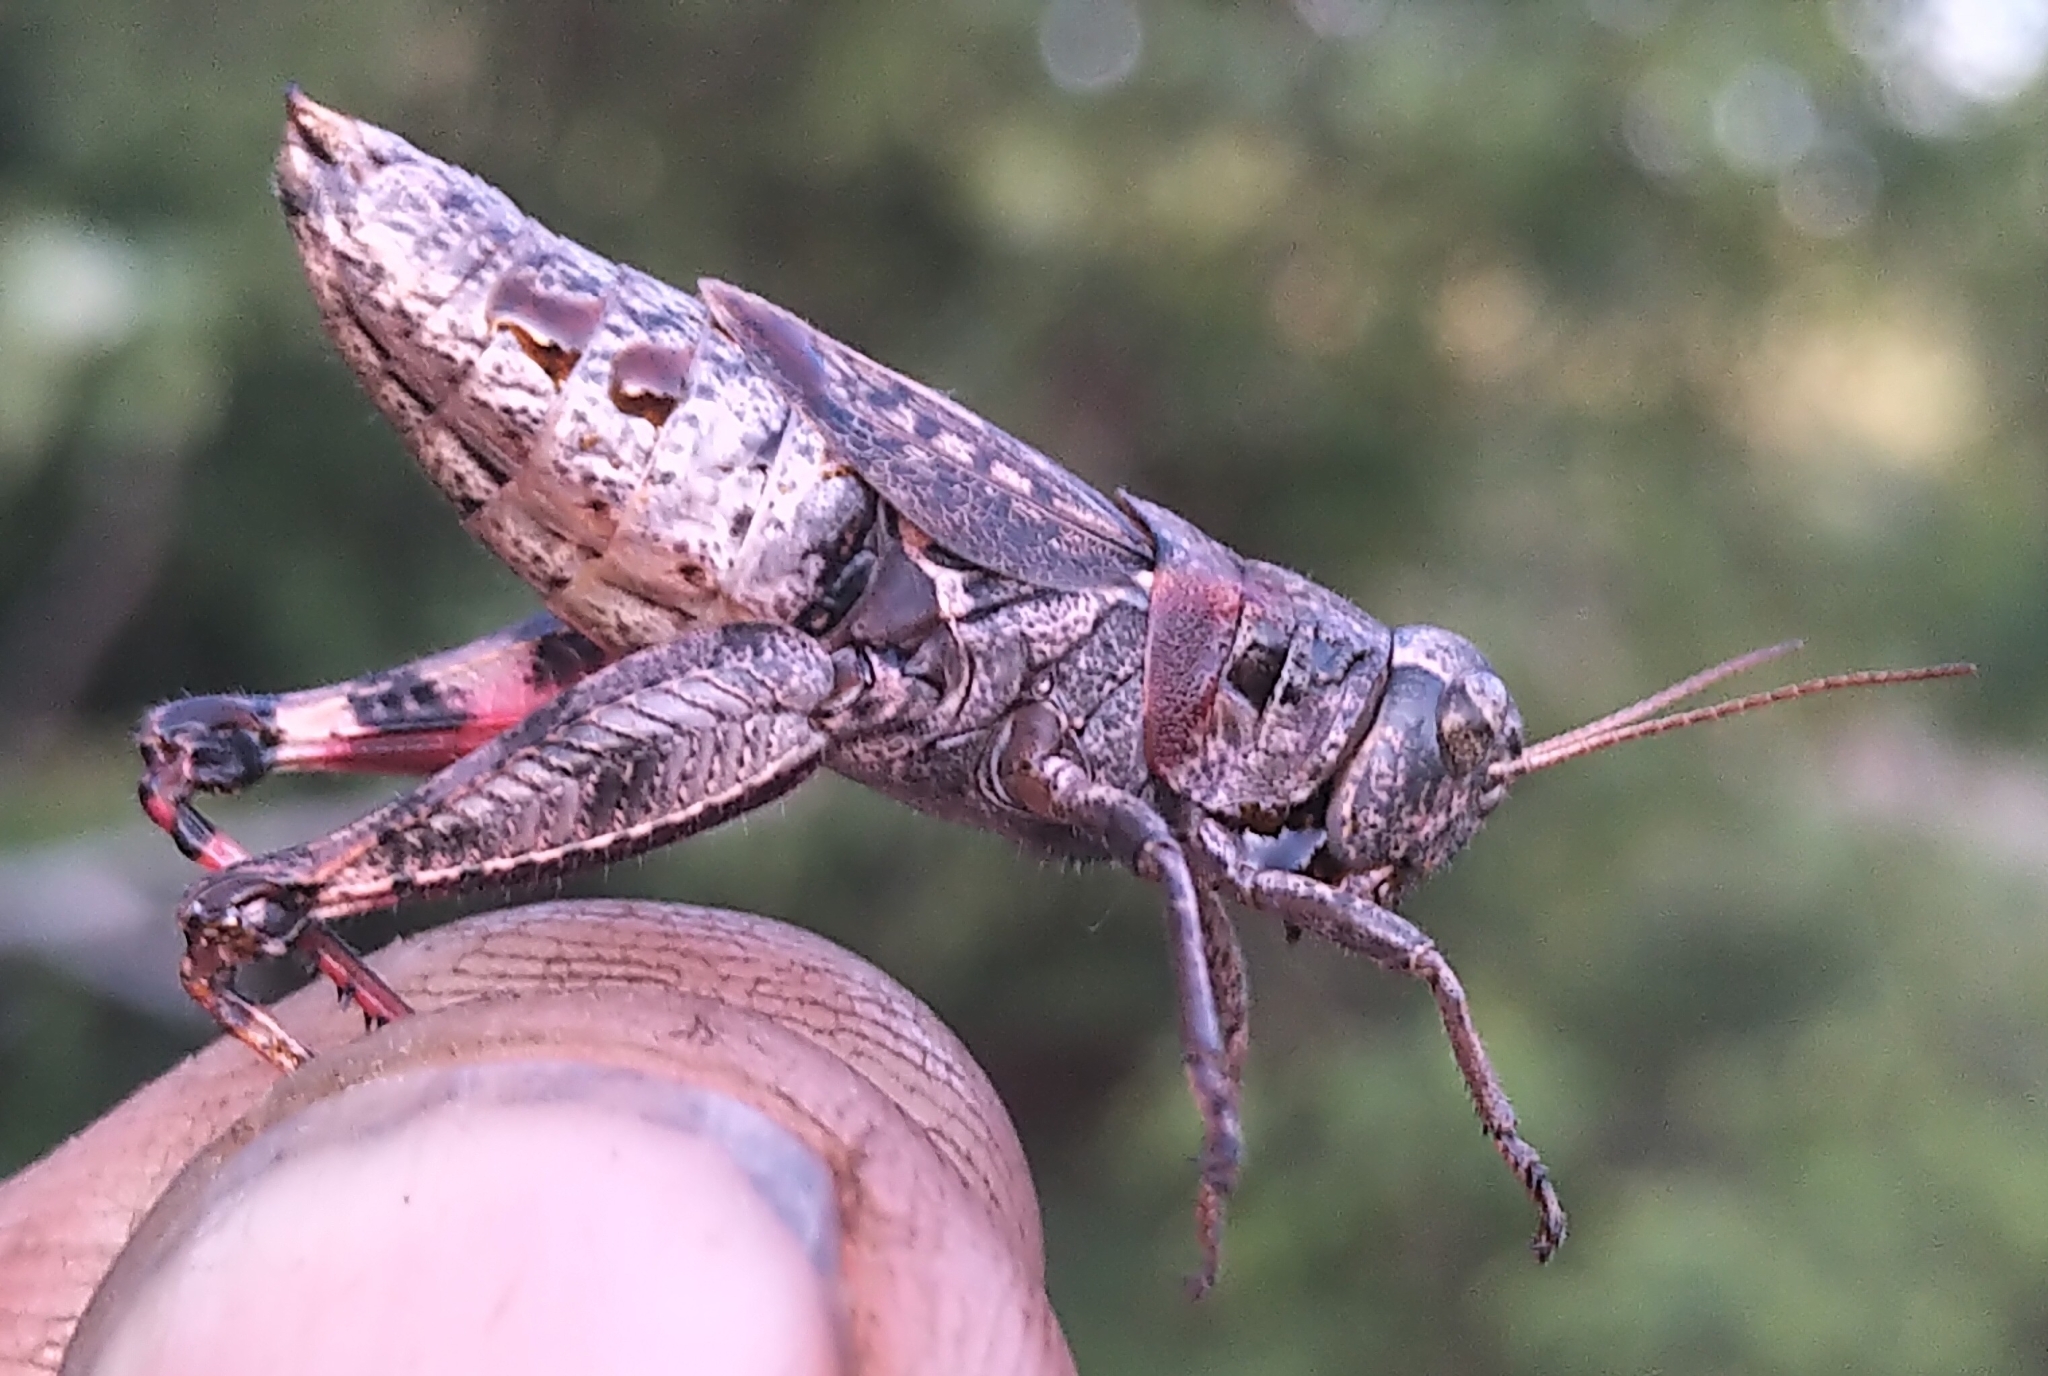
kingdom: Animalia
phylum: Arthropoda
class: Insecta
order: Orthoptera
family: Acrididae
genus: Melanoplus
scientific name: Melanoplus huroni
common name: Huron short-winged locust
